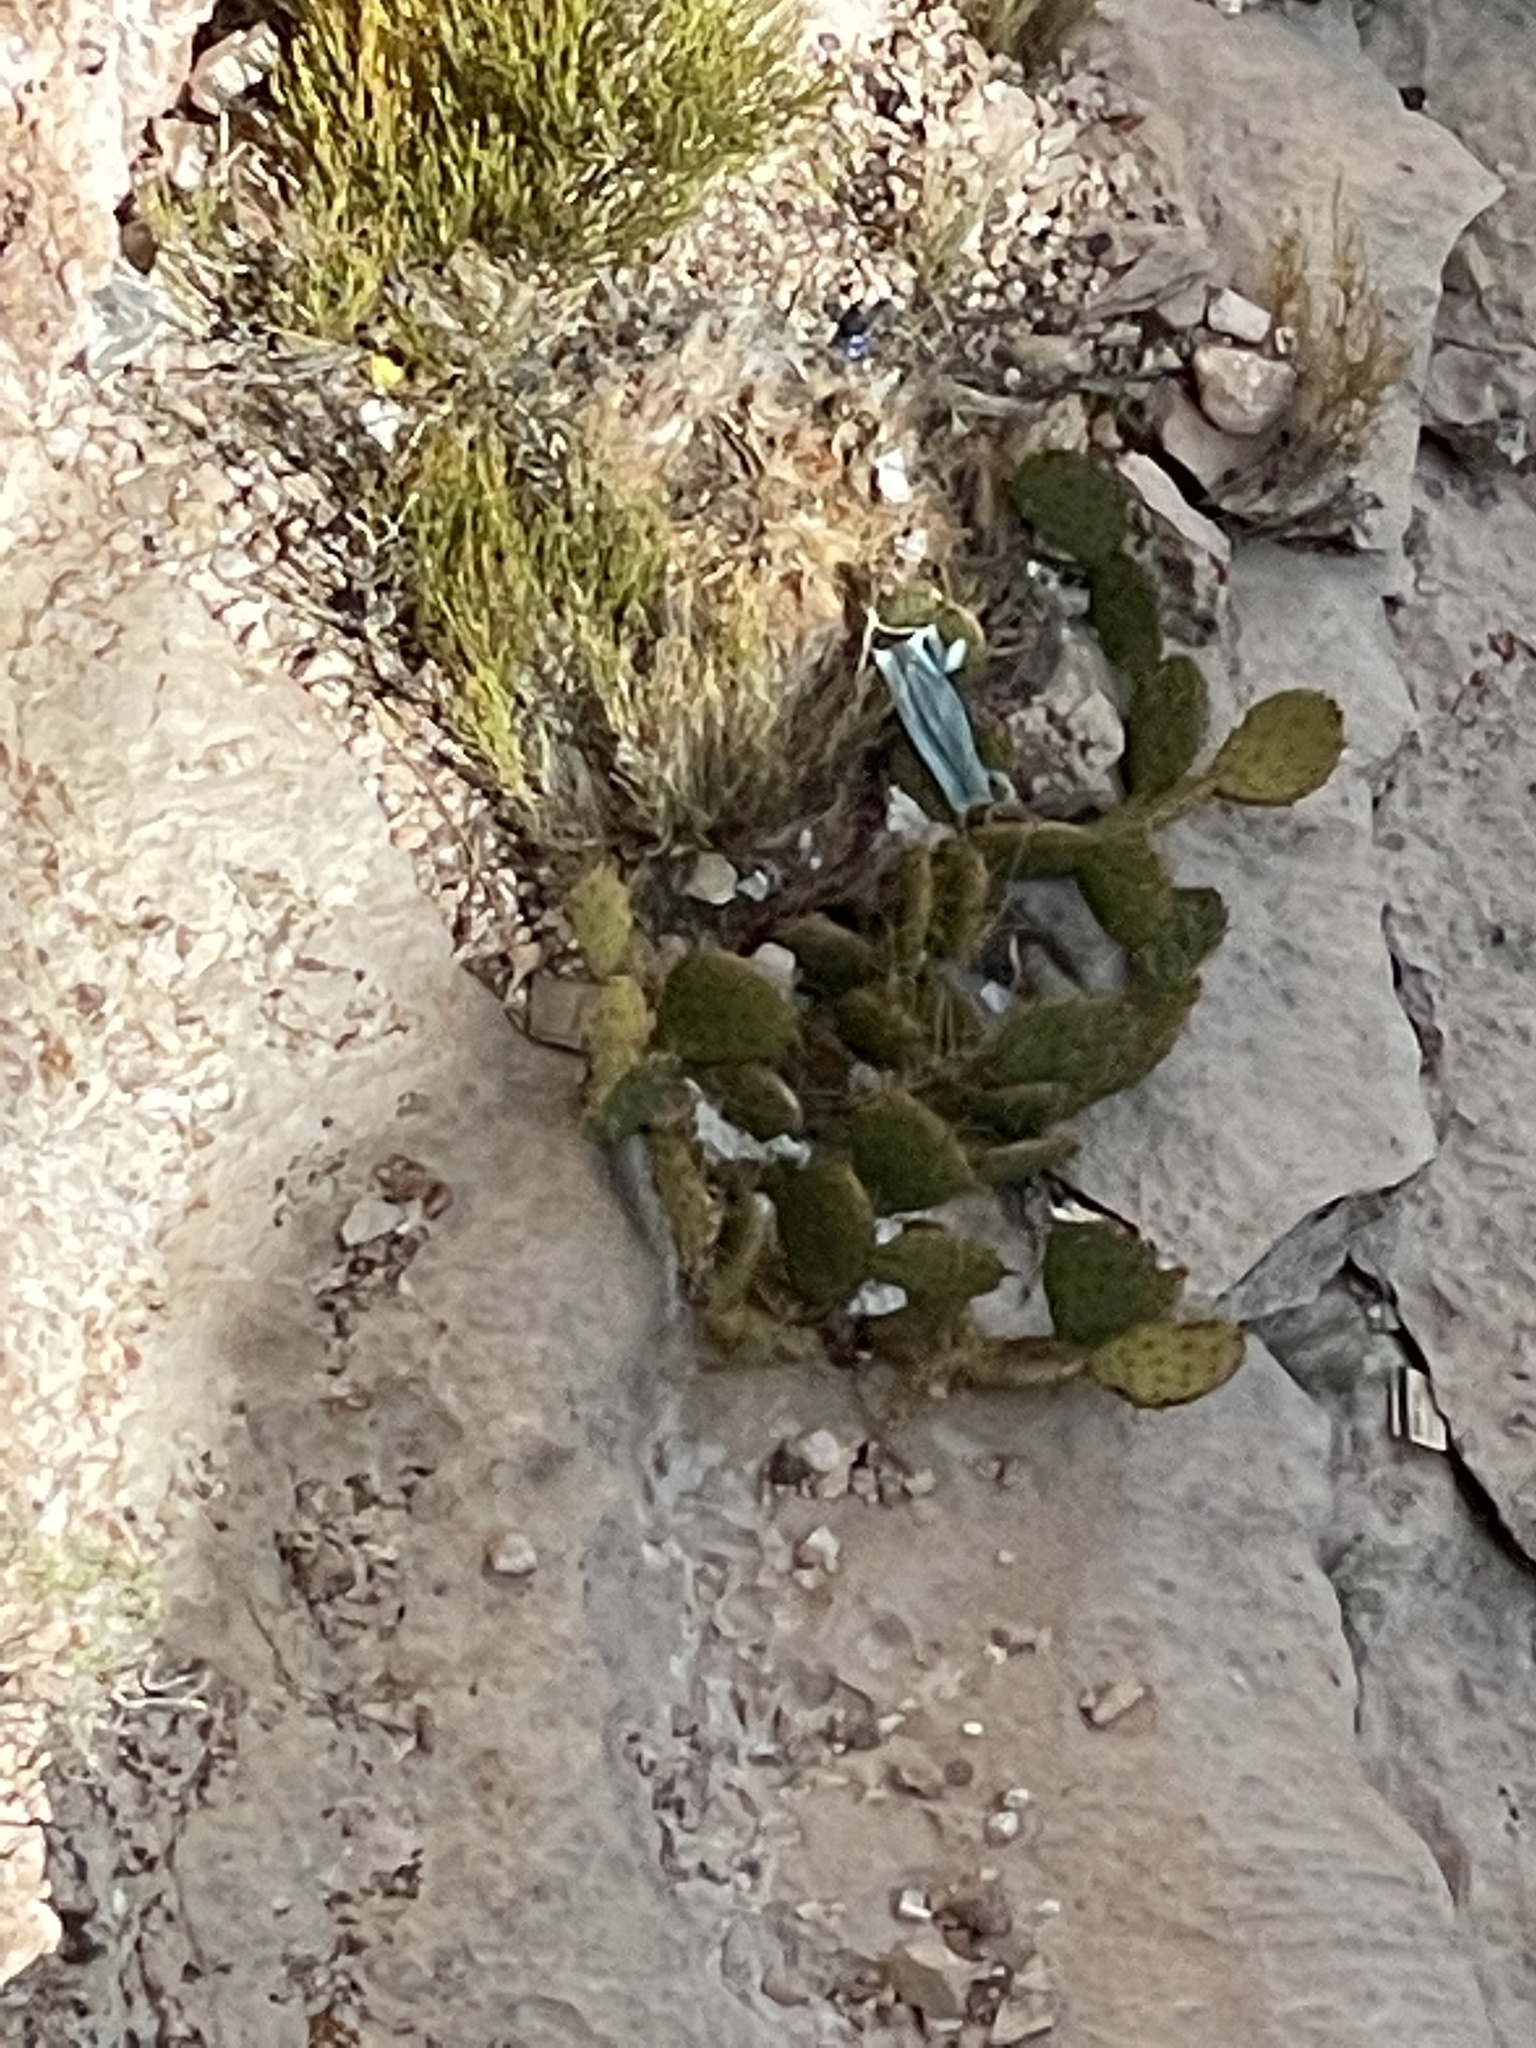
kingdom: Plantae
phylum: Tracheophyta
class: Magnoliopsida
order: Caryophyllales
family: Cactaceae
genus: Opuntia
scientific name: Opuntia phaeacantha
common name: New mexico prickly-pear
